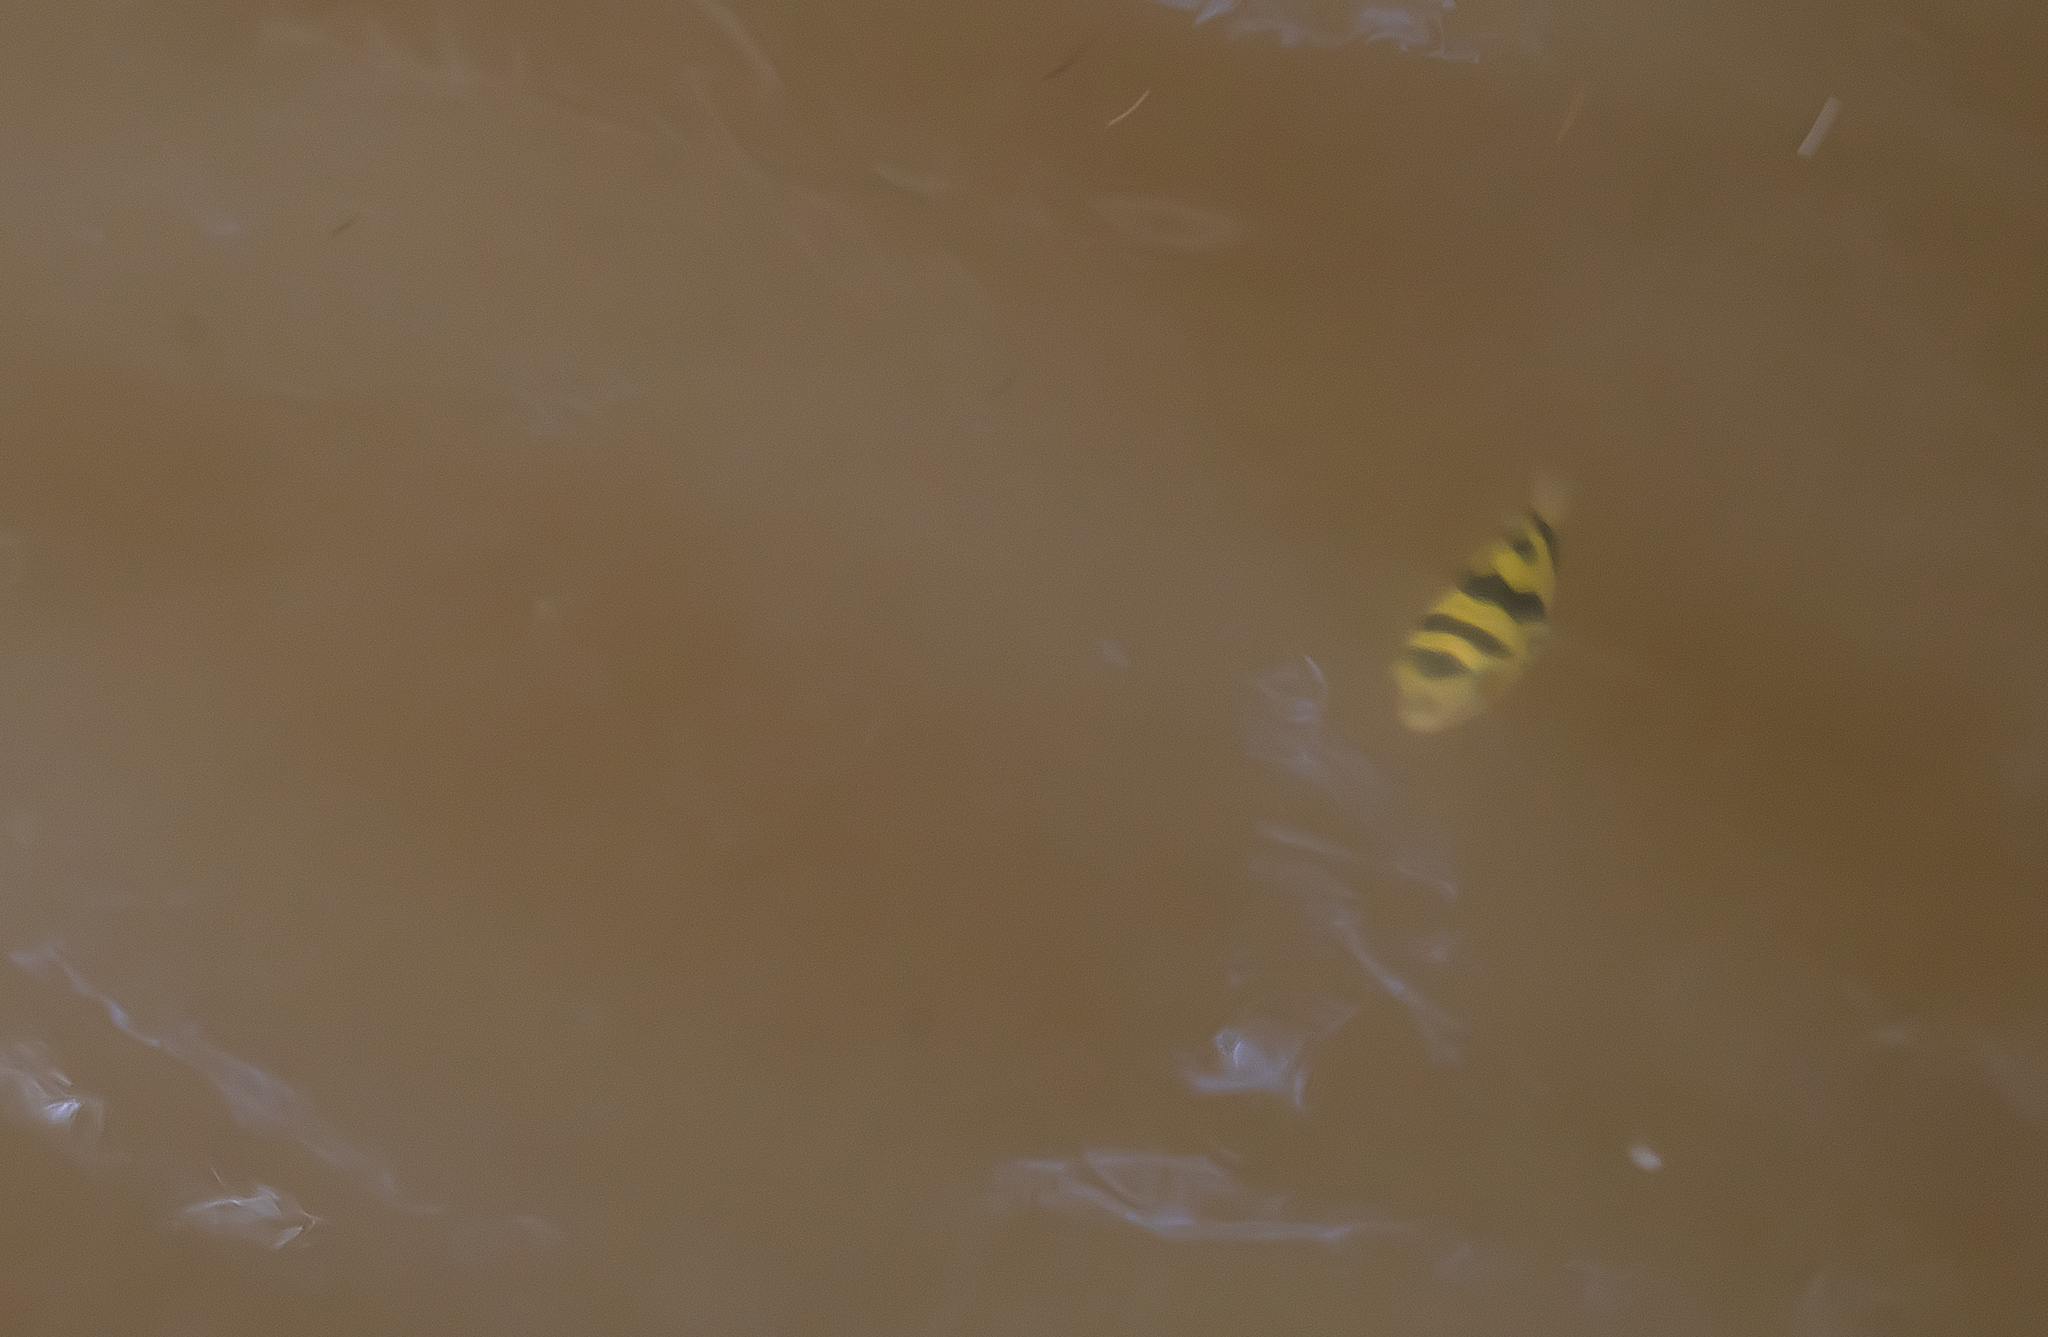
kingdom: Animalia
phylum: Chordata
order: Tetraodontiformes
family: Tetraodontidae
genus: Sphoeroides
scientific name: Sphoeroides
